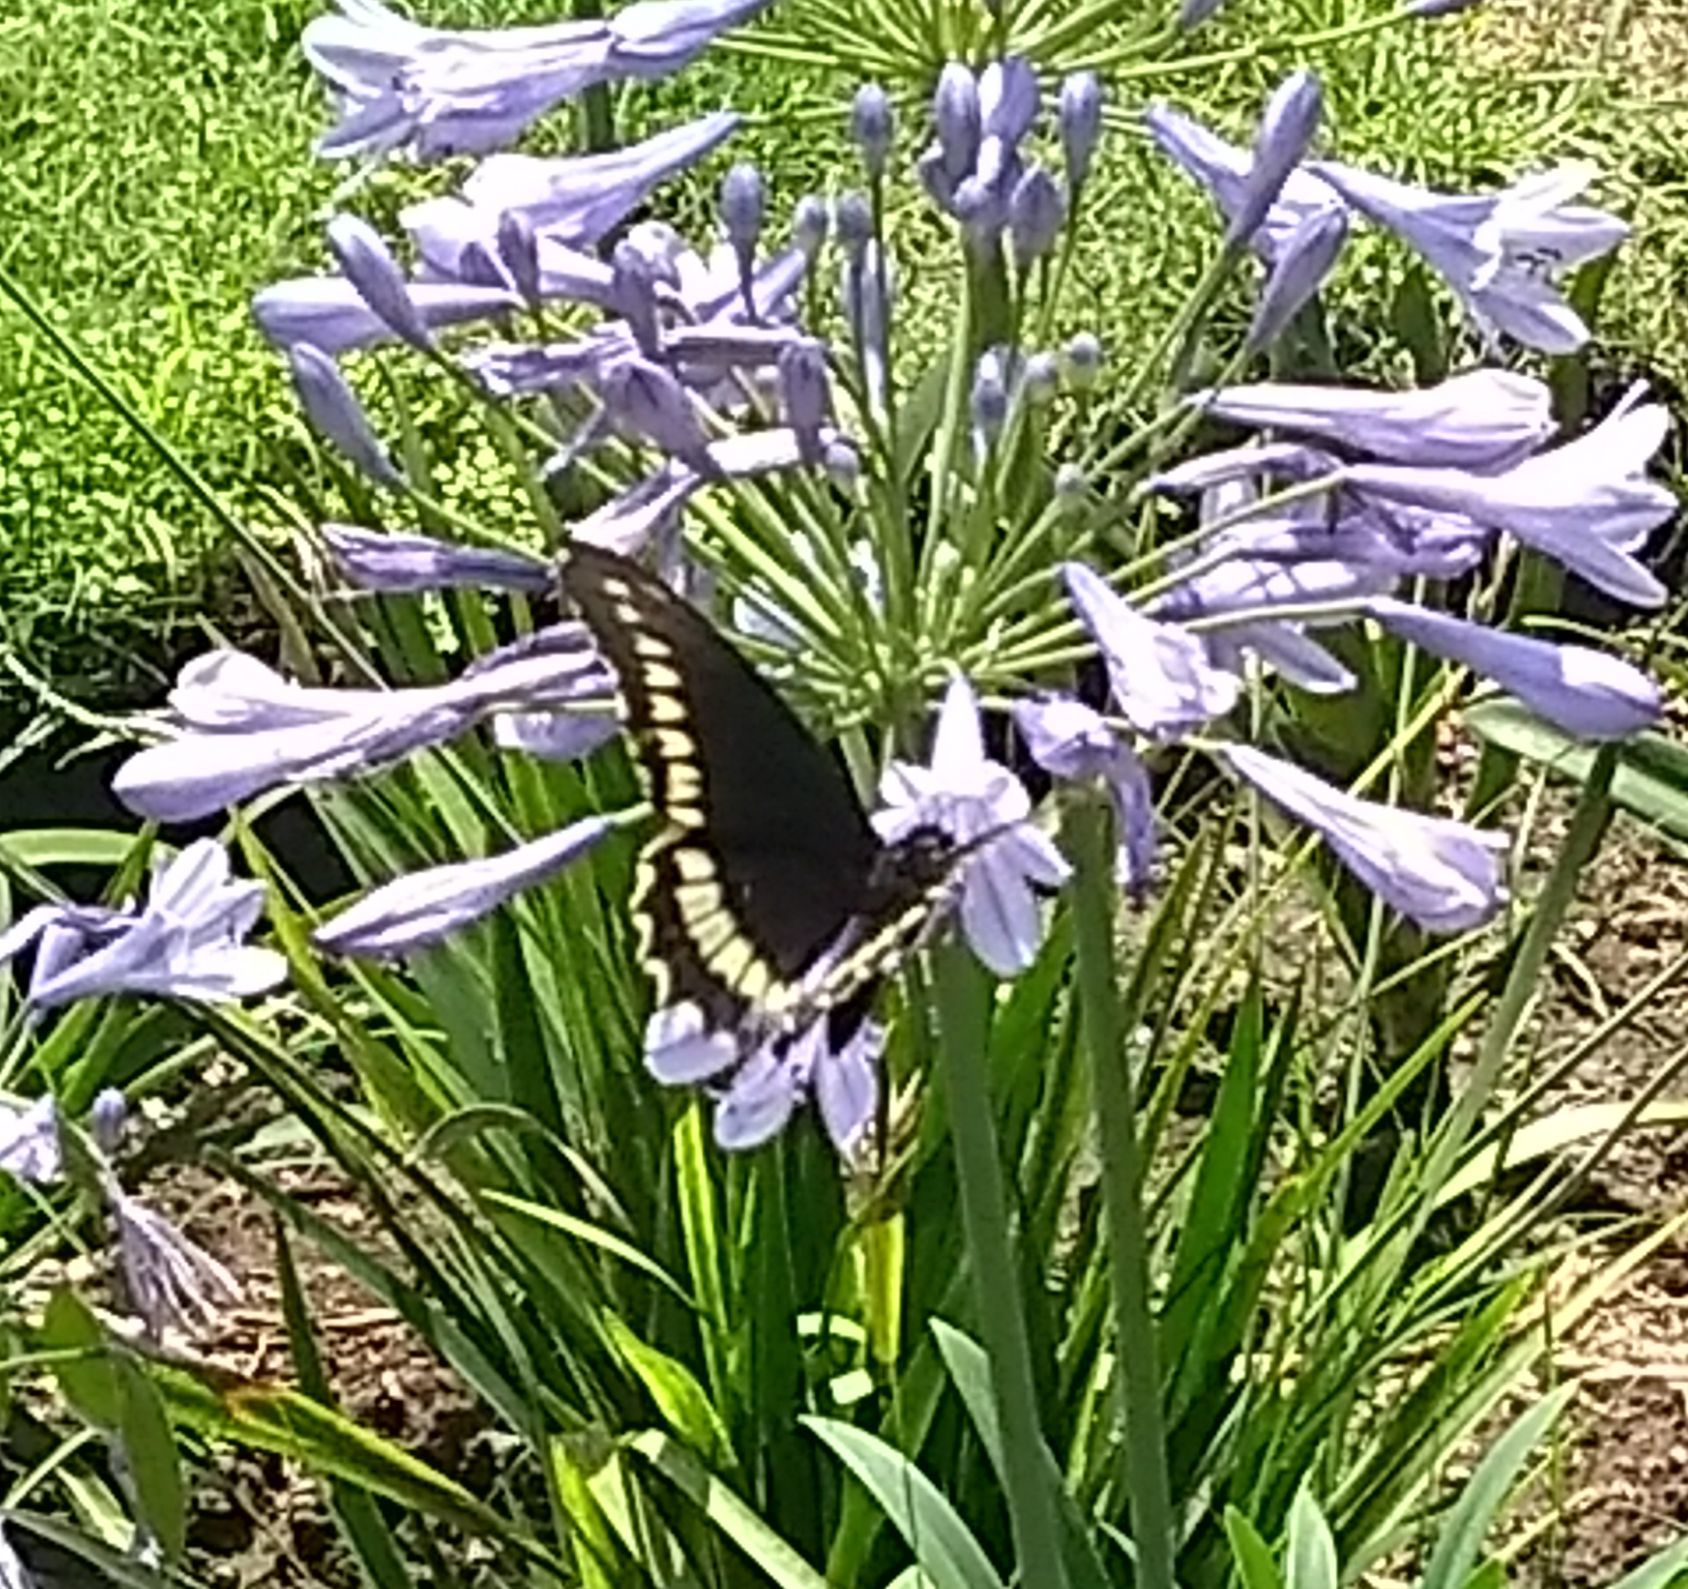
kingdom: Animalia
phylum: Arthropoda
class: Insecta
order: Lepidoptera
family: Papilionidae
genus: Battus
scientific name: Battus polydamas
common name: Polydamas swallowtail
